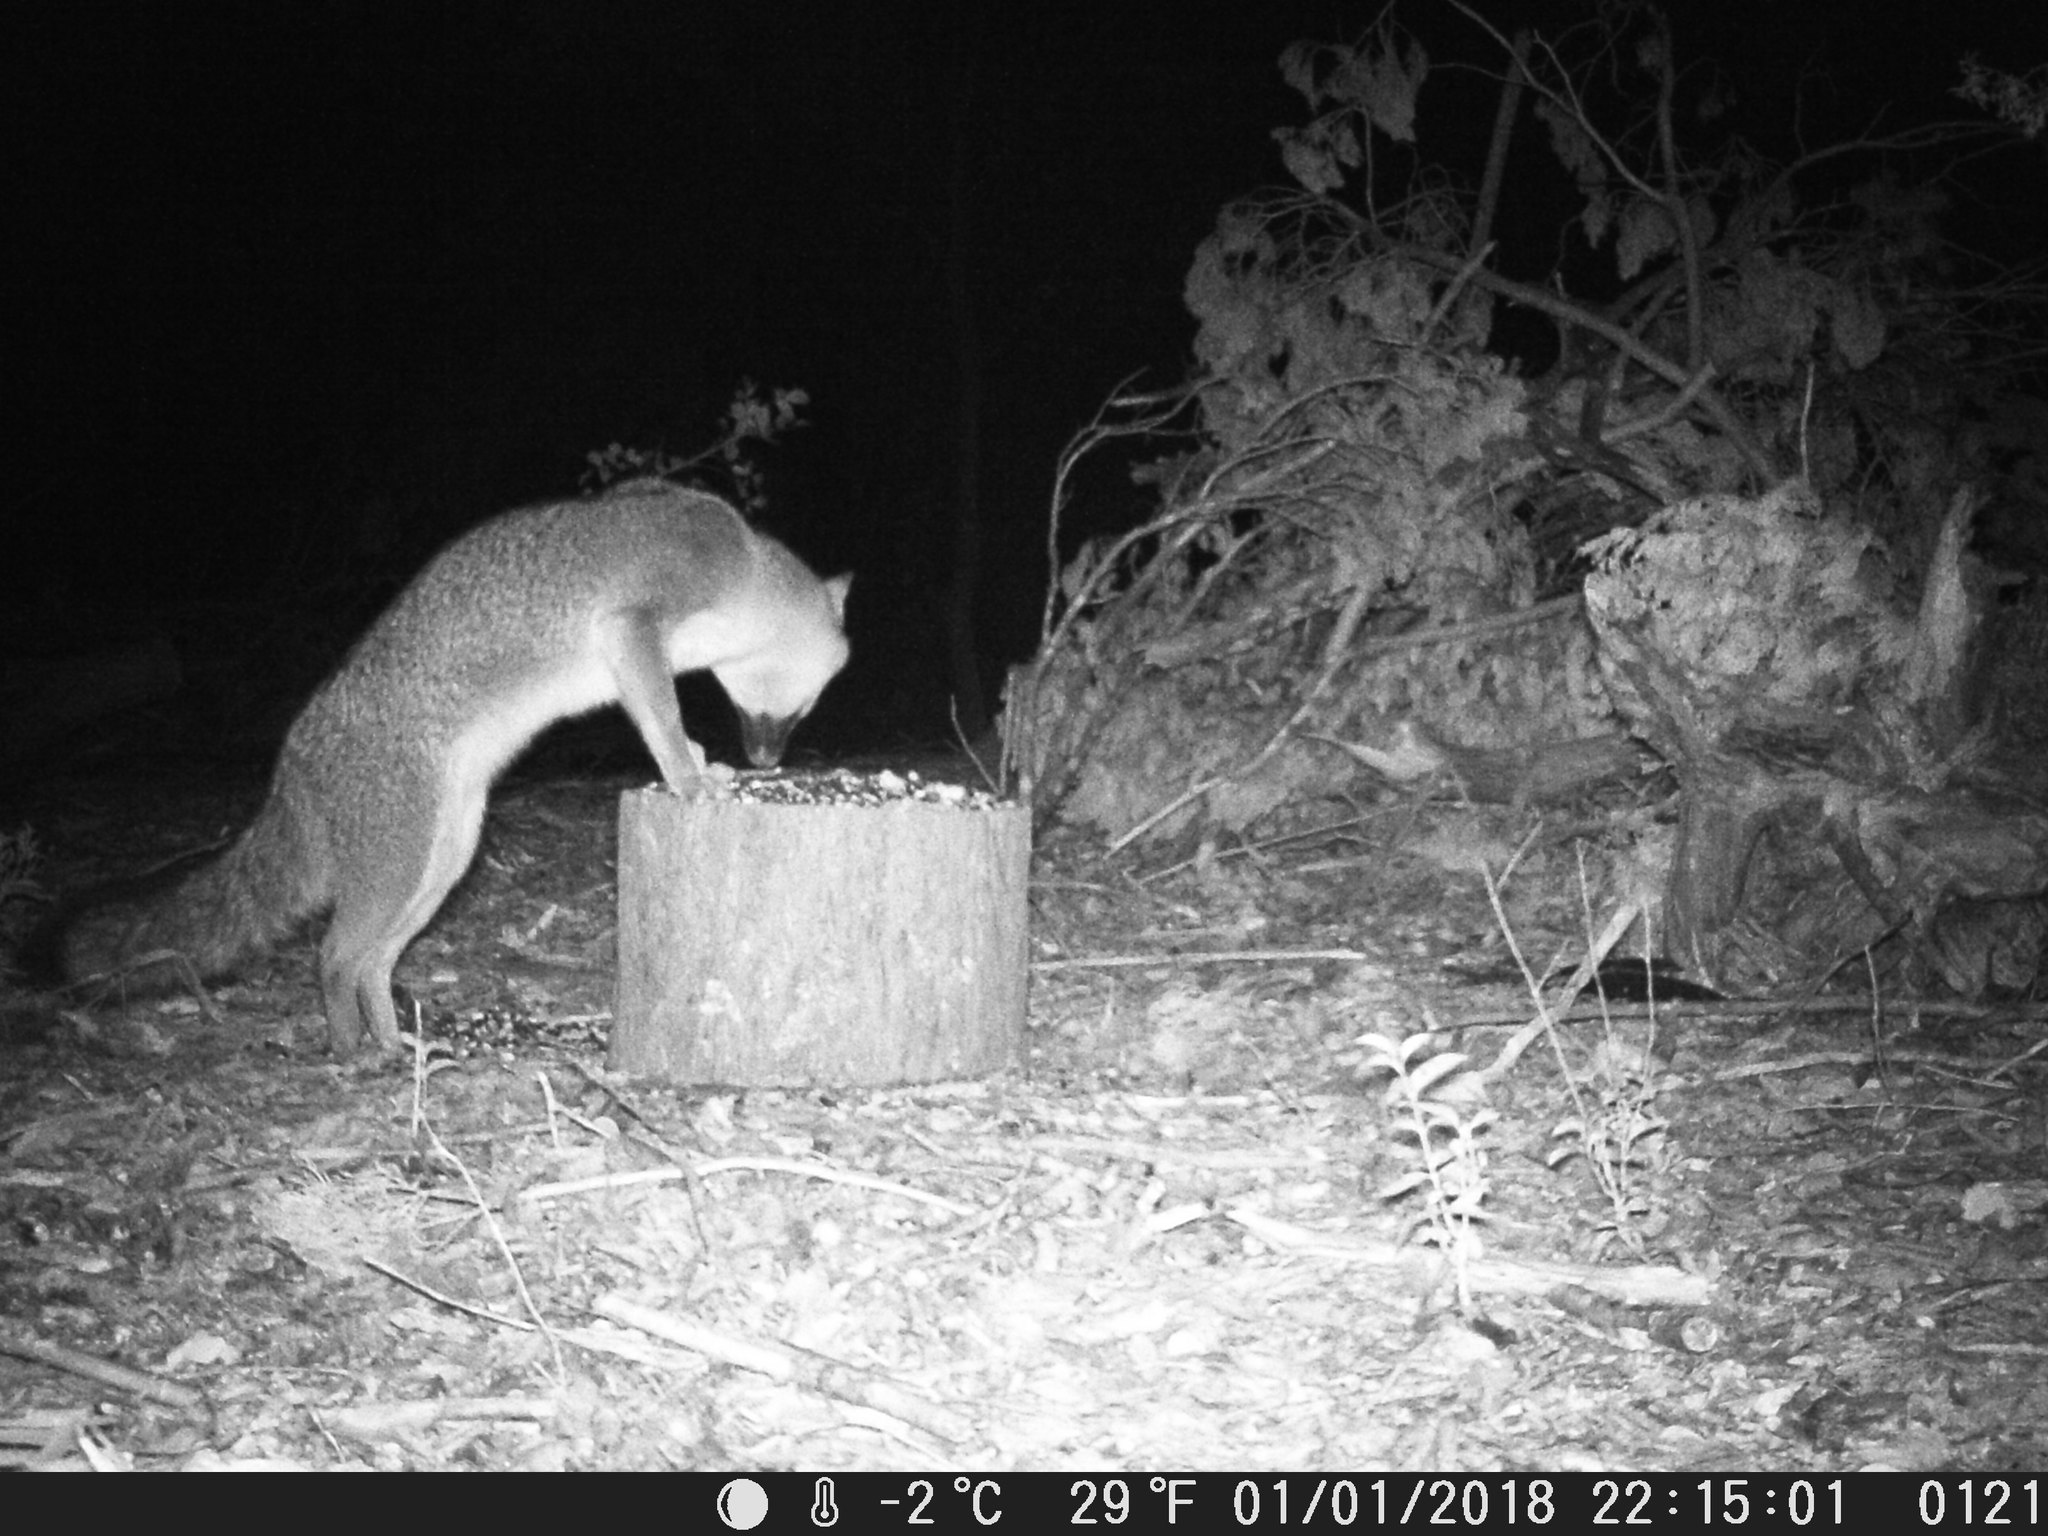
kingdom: Animalia
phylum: Chordata
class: Mammalia
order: Carnivora
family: Canidae
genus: Urocyon
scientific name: Urocyon cinereoargenteus
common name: Gray fox
